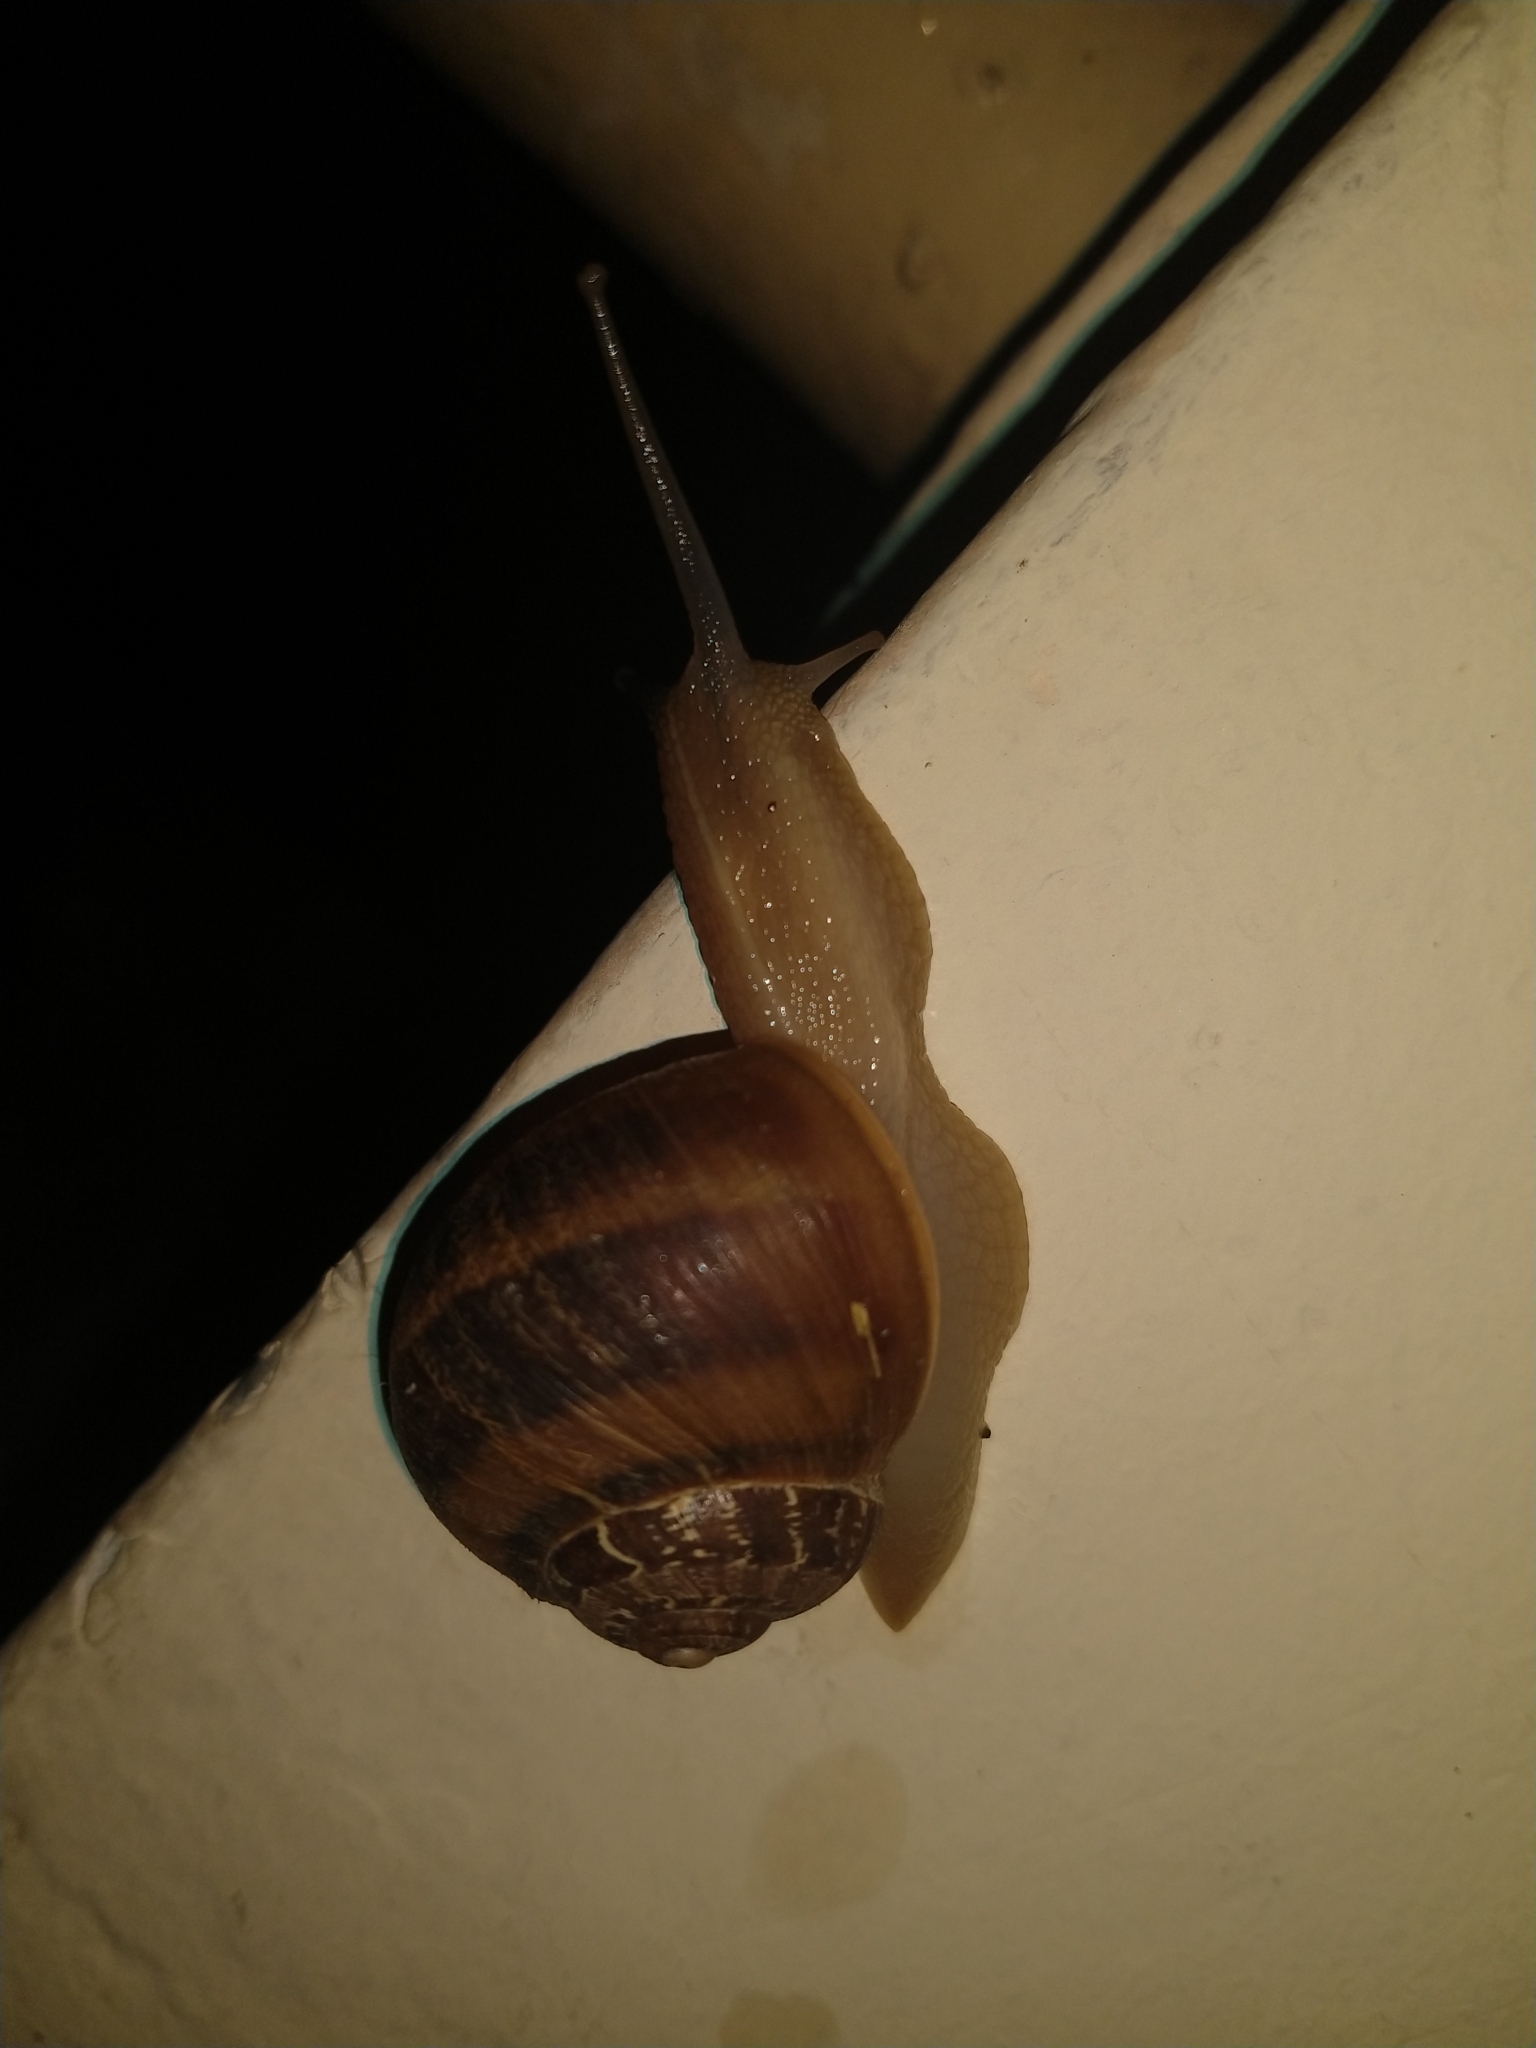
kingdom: Animalia
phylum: Mollusca
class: Gastropoda
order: Stylommatophora
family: Helicidae
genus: Cornu
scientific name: Cornu aspersum
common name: Brown garden snail
